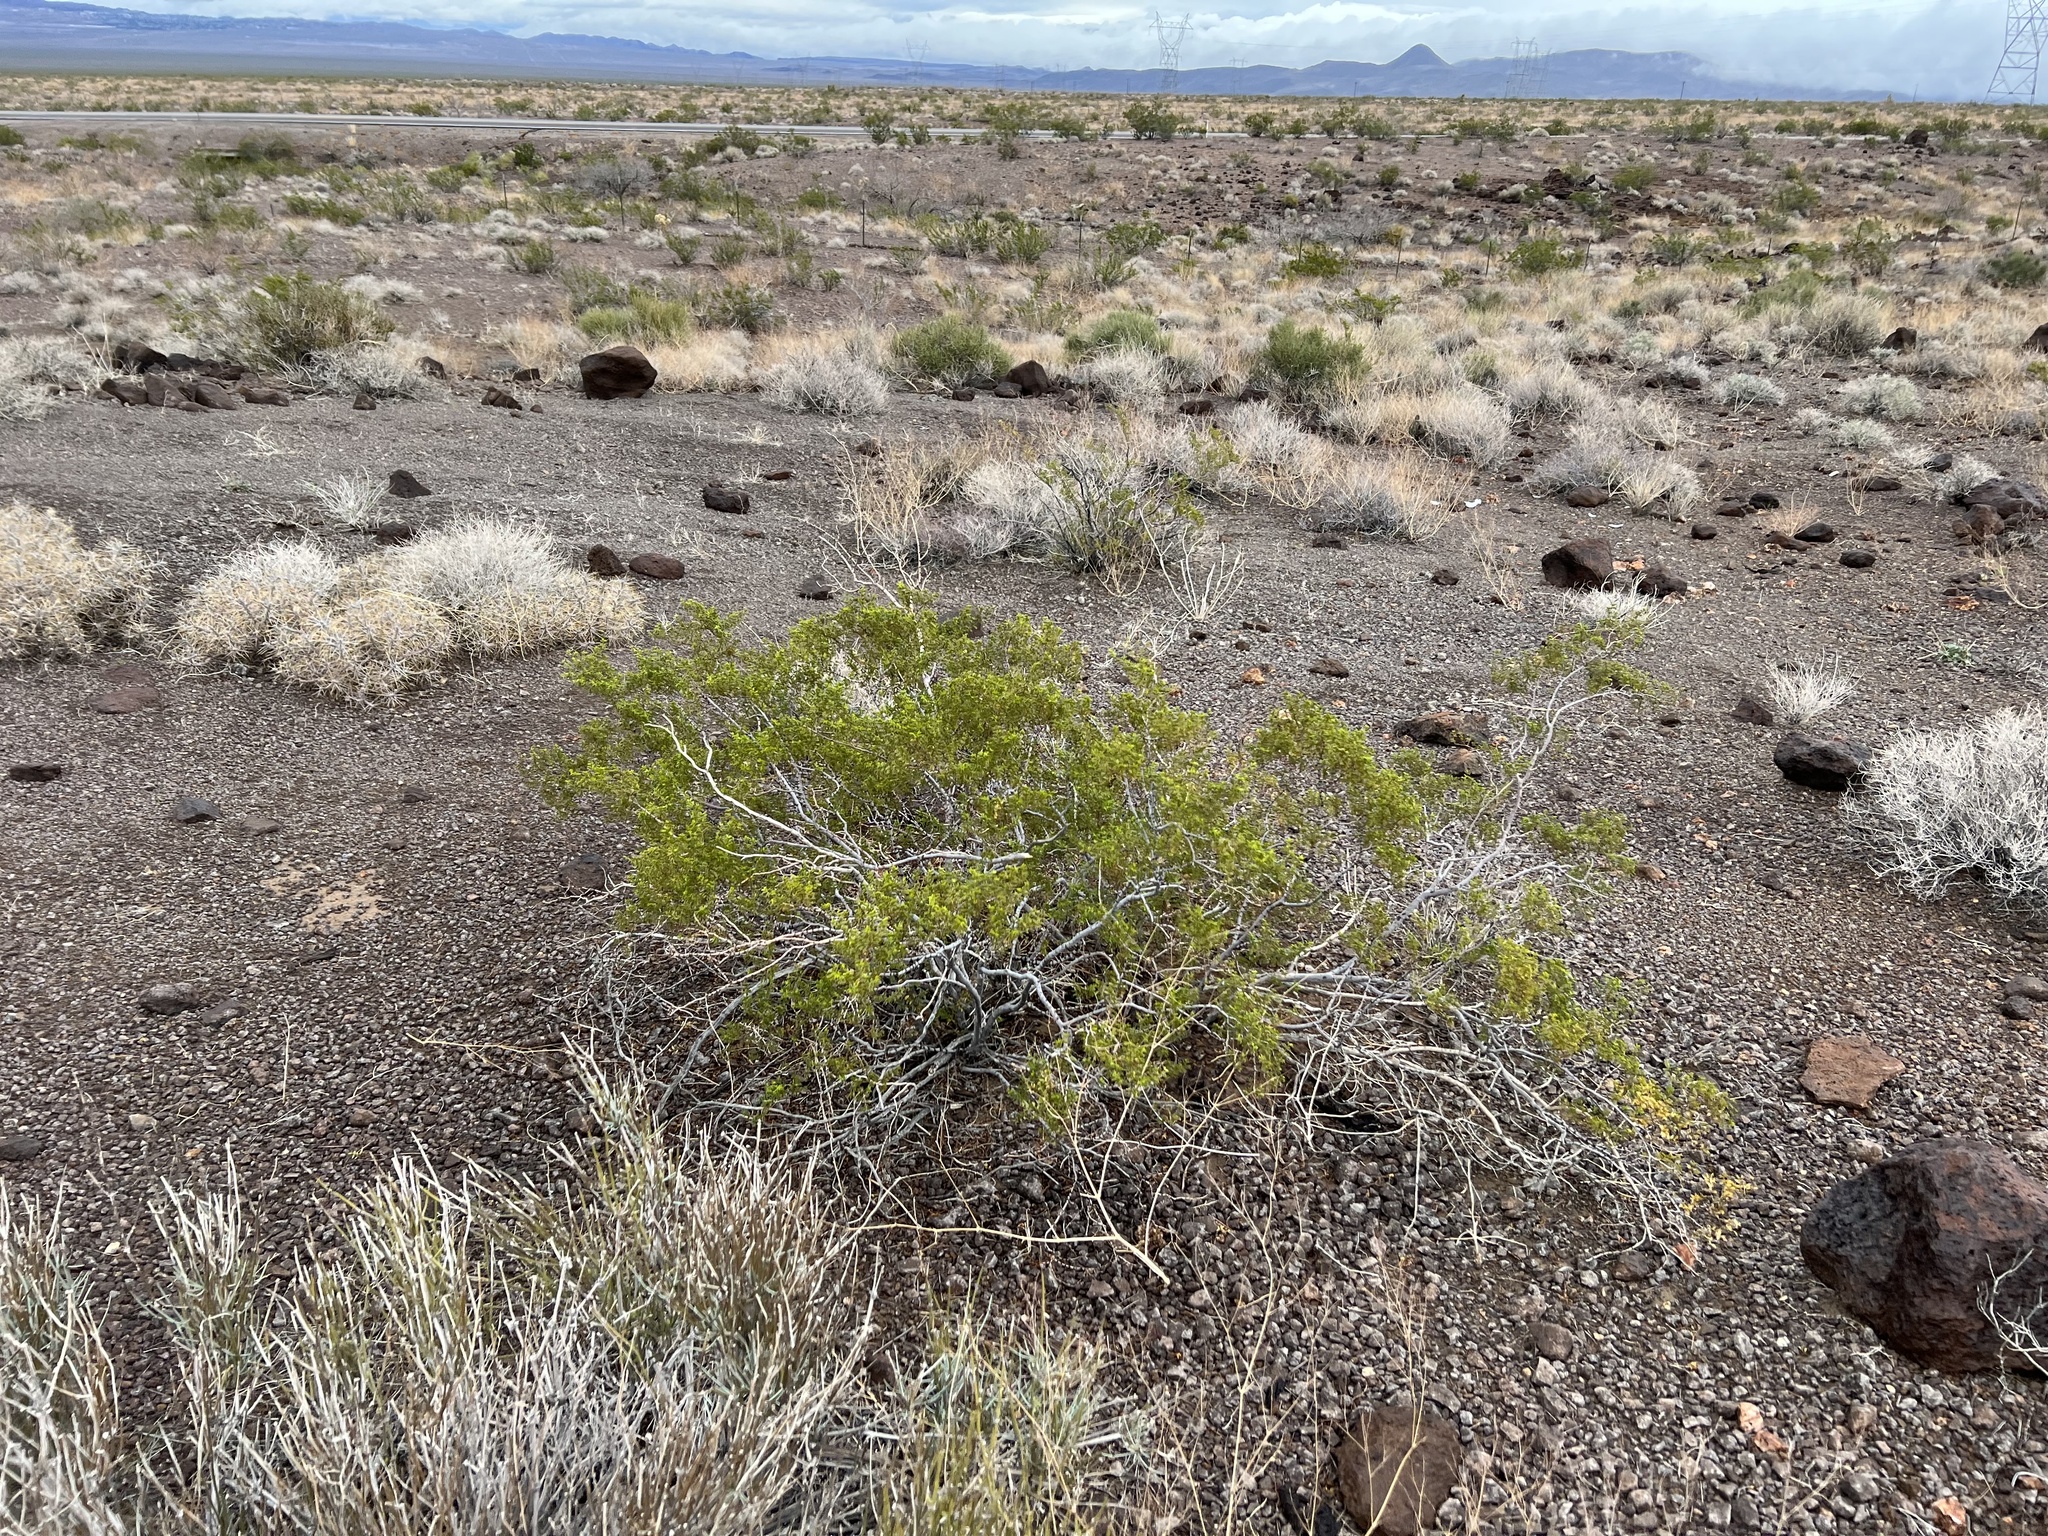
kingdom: Plantae
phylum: Tracheophyta
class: Magnoliopsida
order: Zygophyllales
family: Zygophyllaceae
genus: Larrea
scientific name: Larrea tridentata
